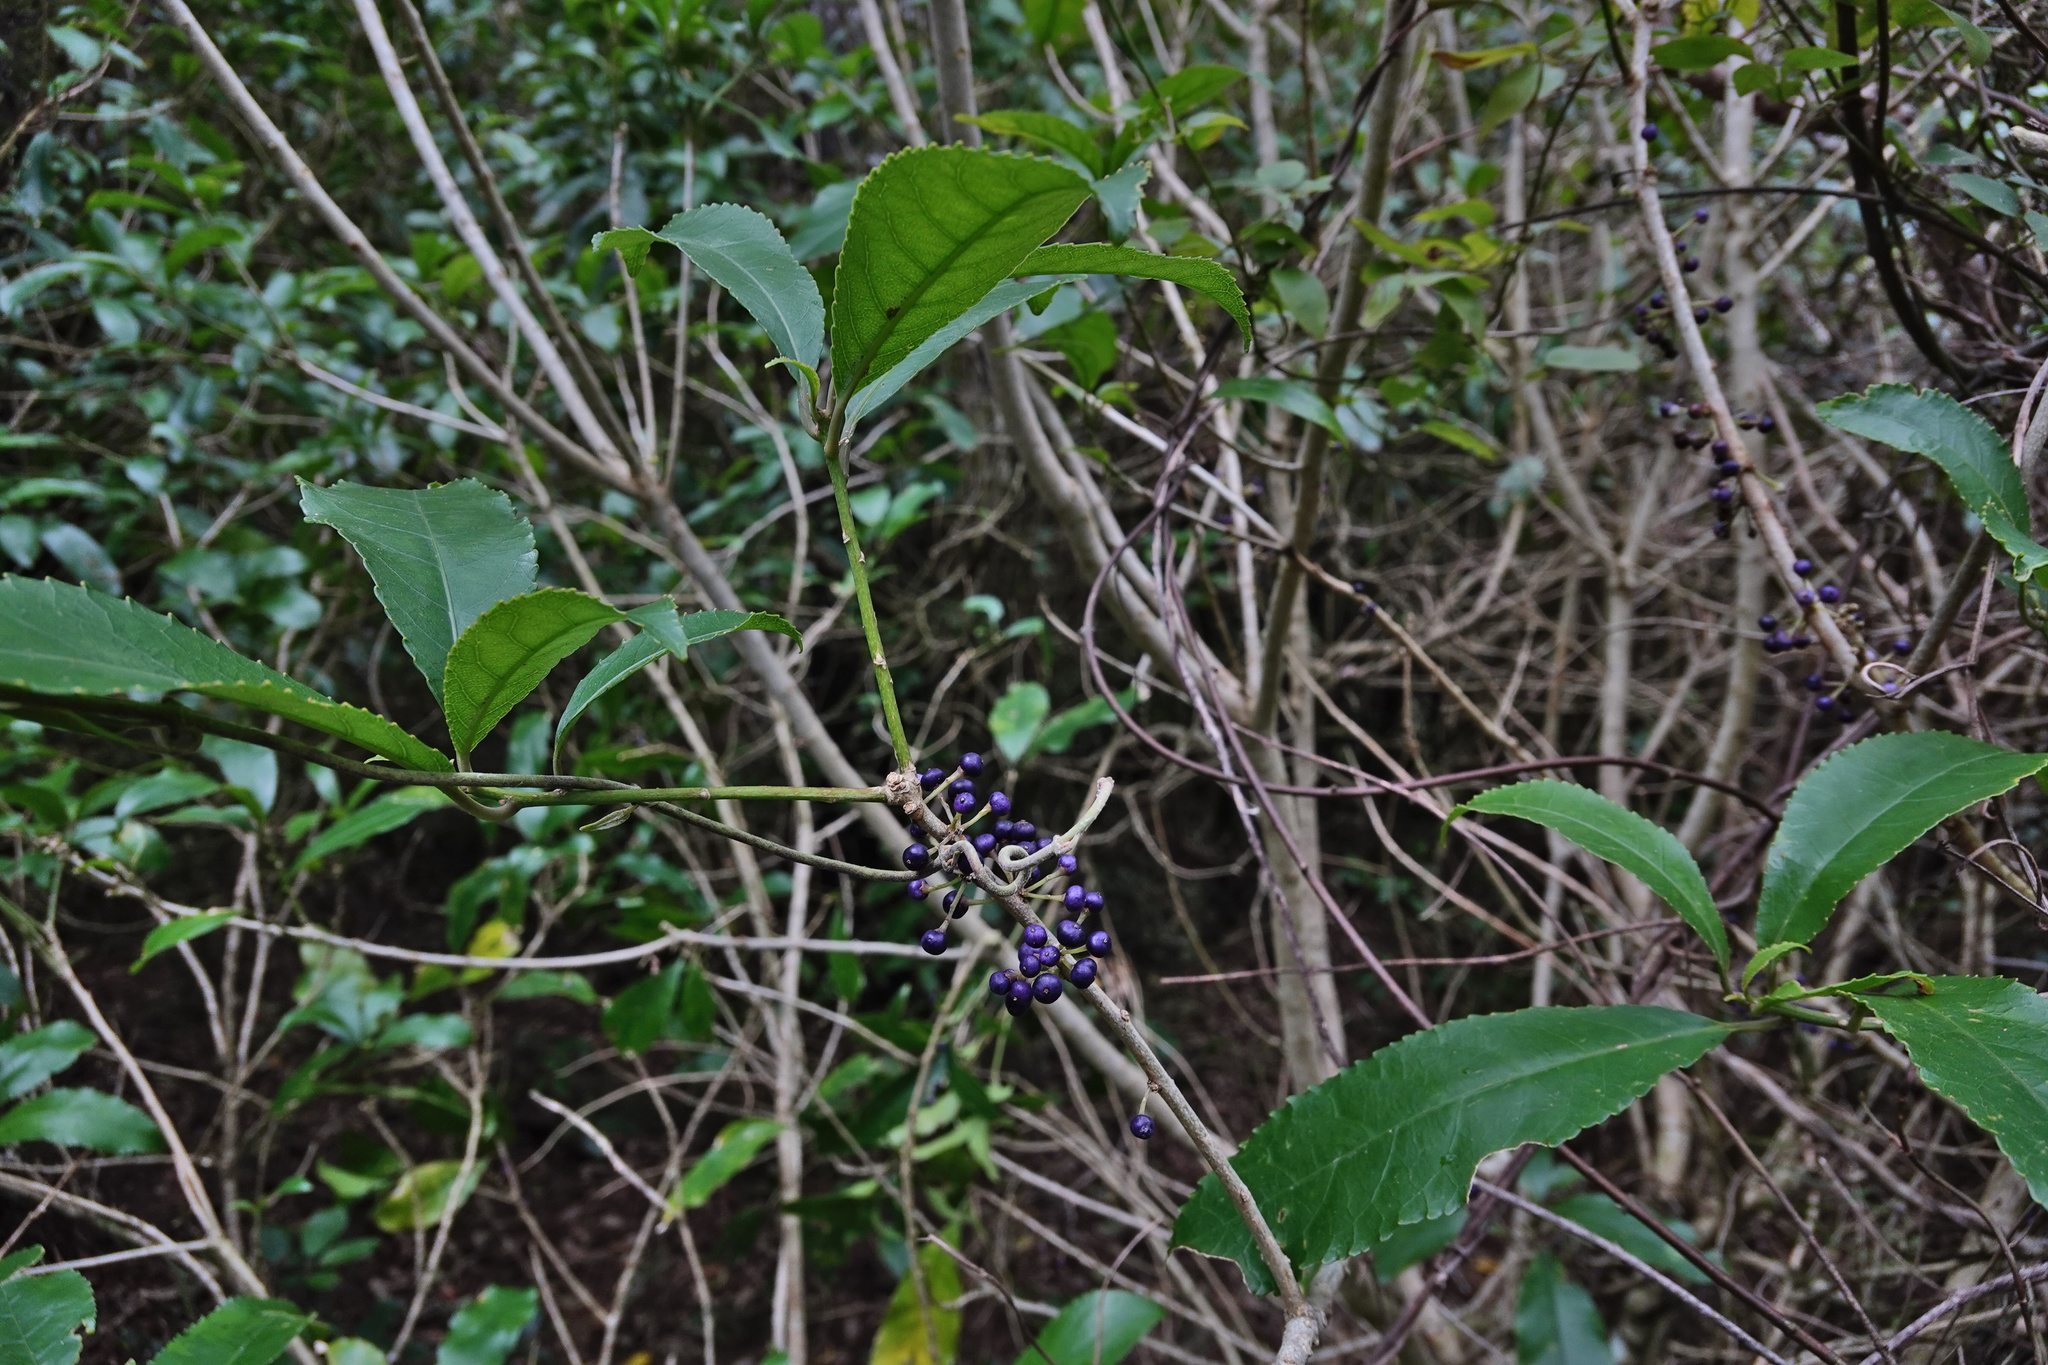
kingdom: Plantae
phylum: Tracheophyta
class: Magnoliopsida
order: Malpighiales
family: Violaceae
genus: Melicytus
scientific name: Melicytus ramiflorus
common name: Mahoe
